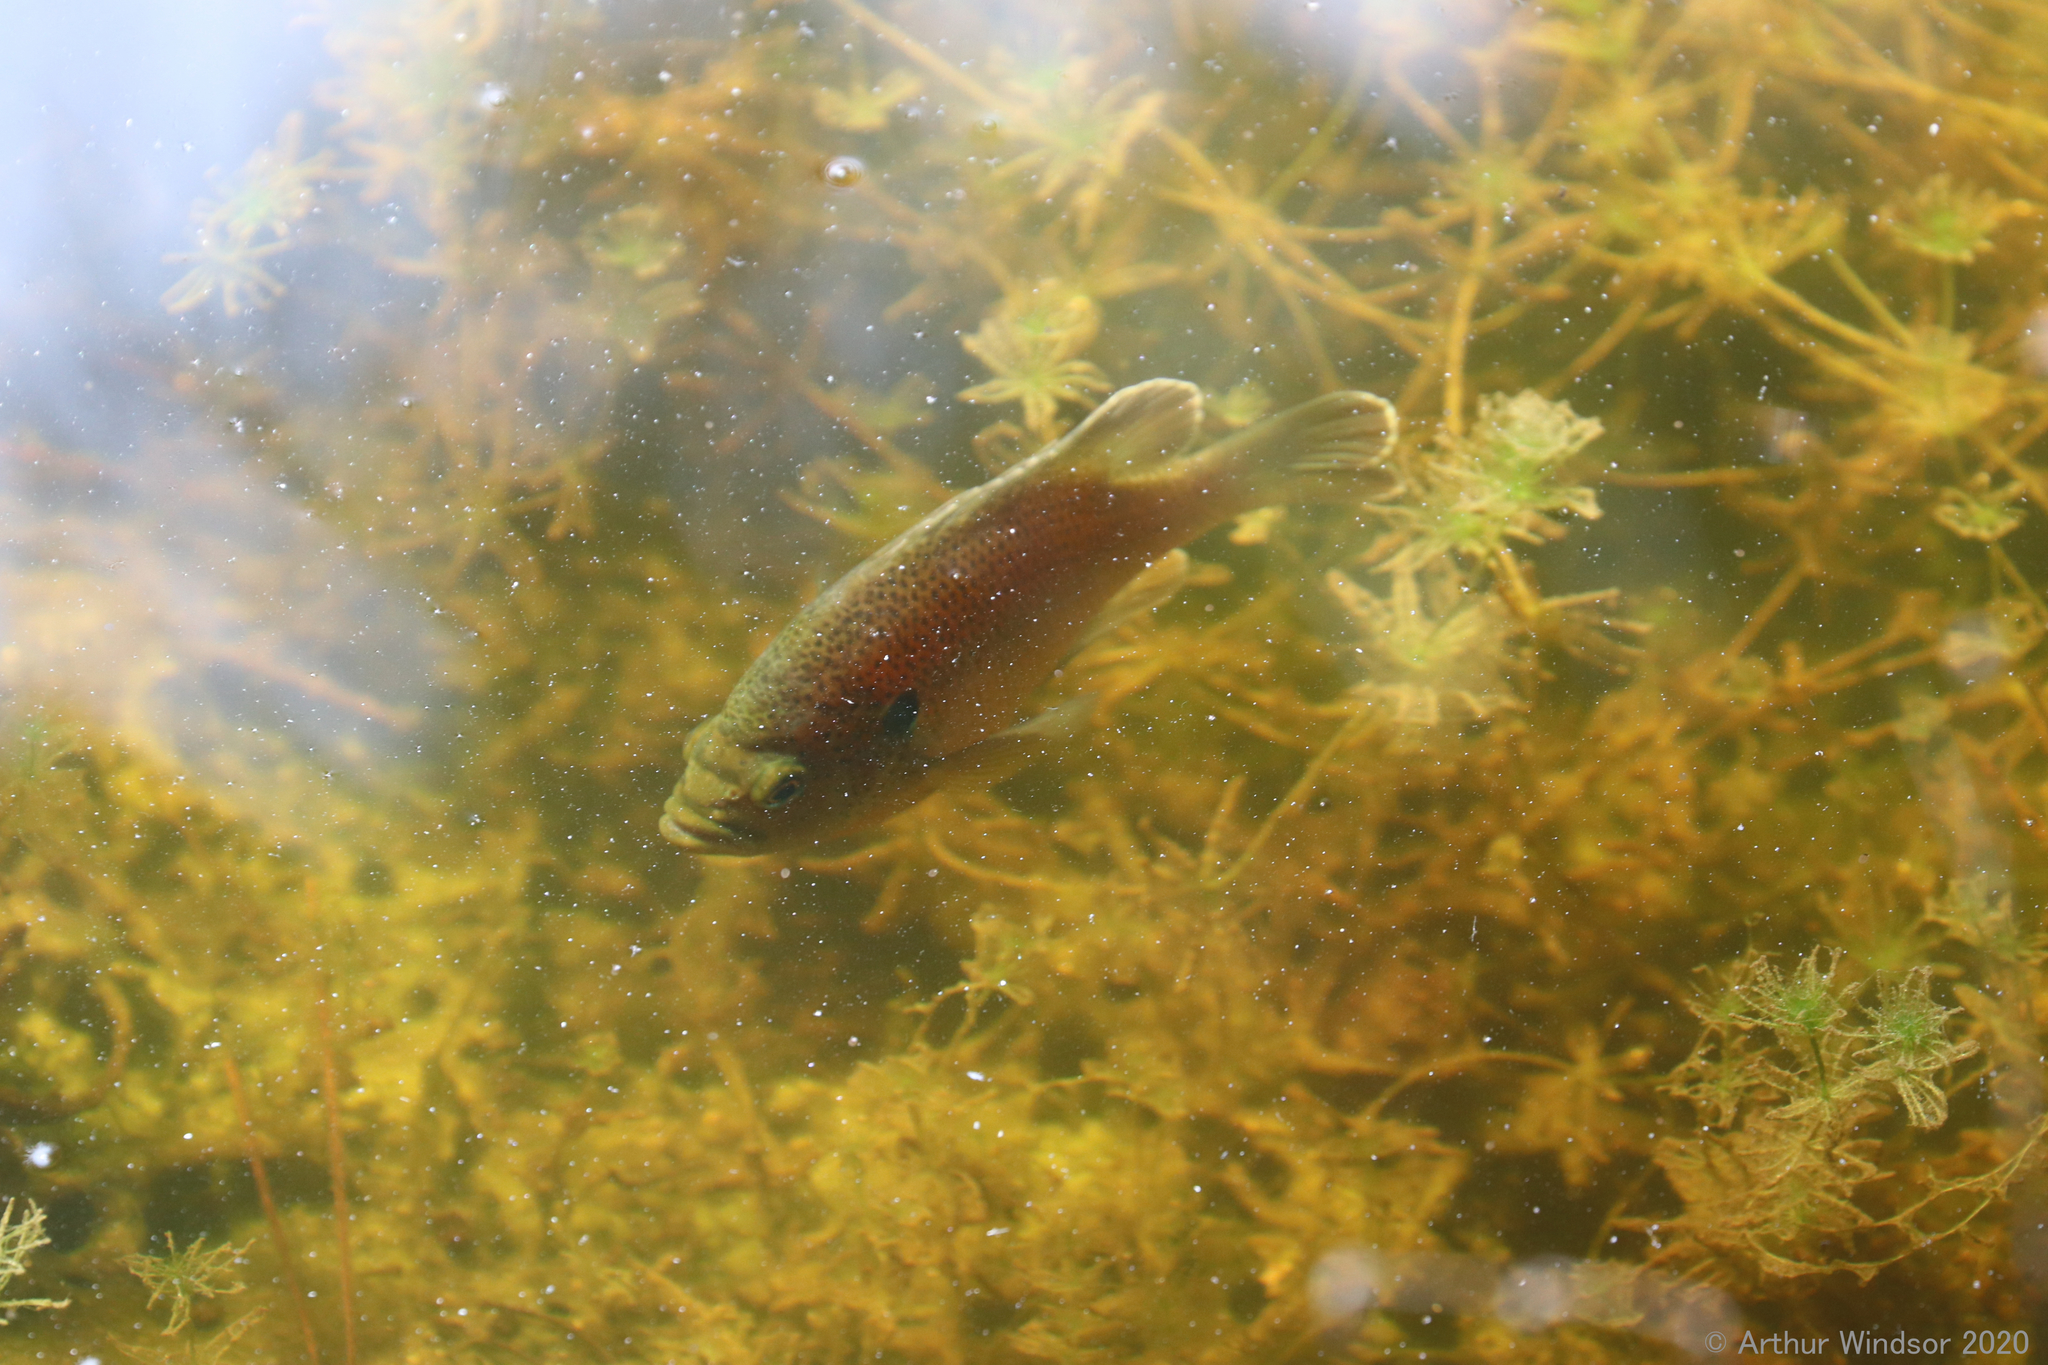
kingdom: Animalia
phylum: Chordata
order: Perciformes
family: Centrarchidae
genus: Lepomis
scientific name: Lepomis punctatus
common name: Spotted sunfish
